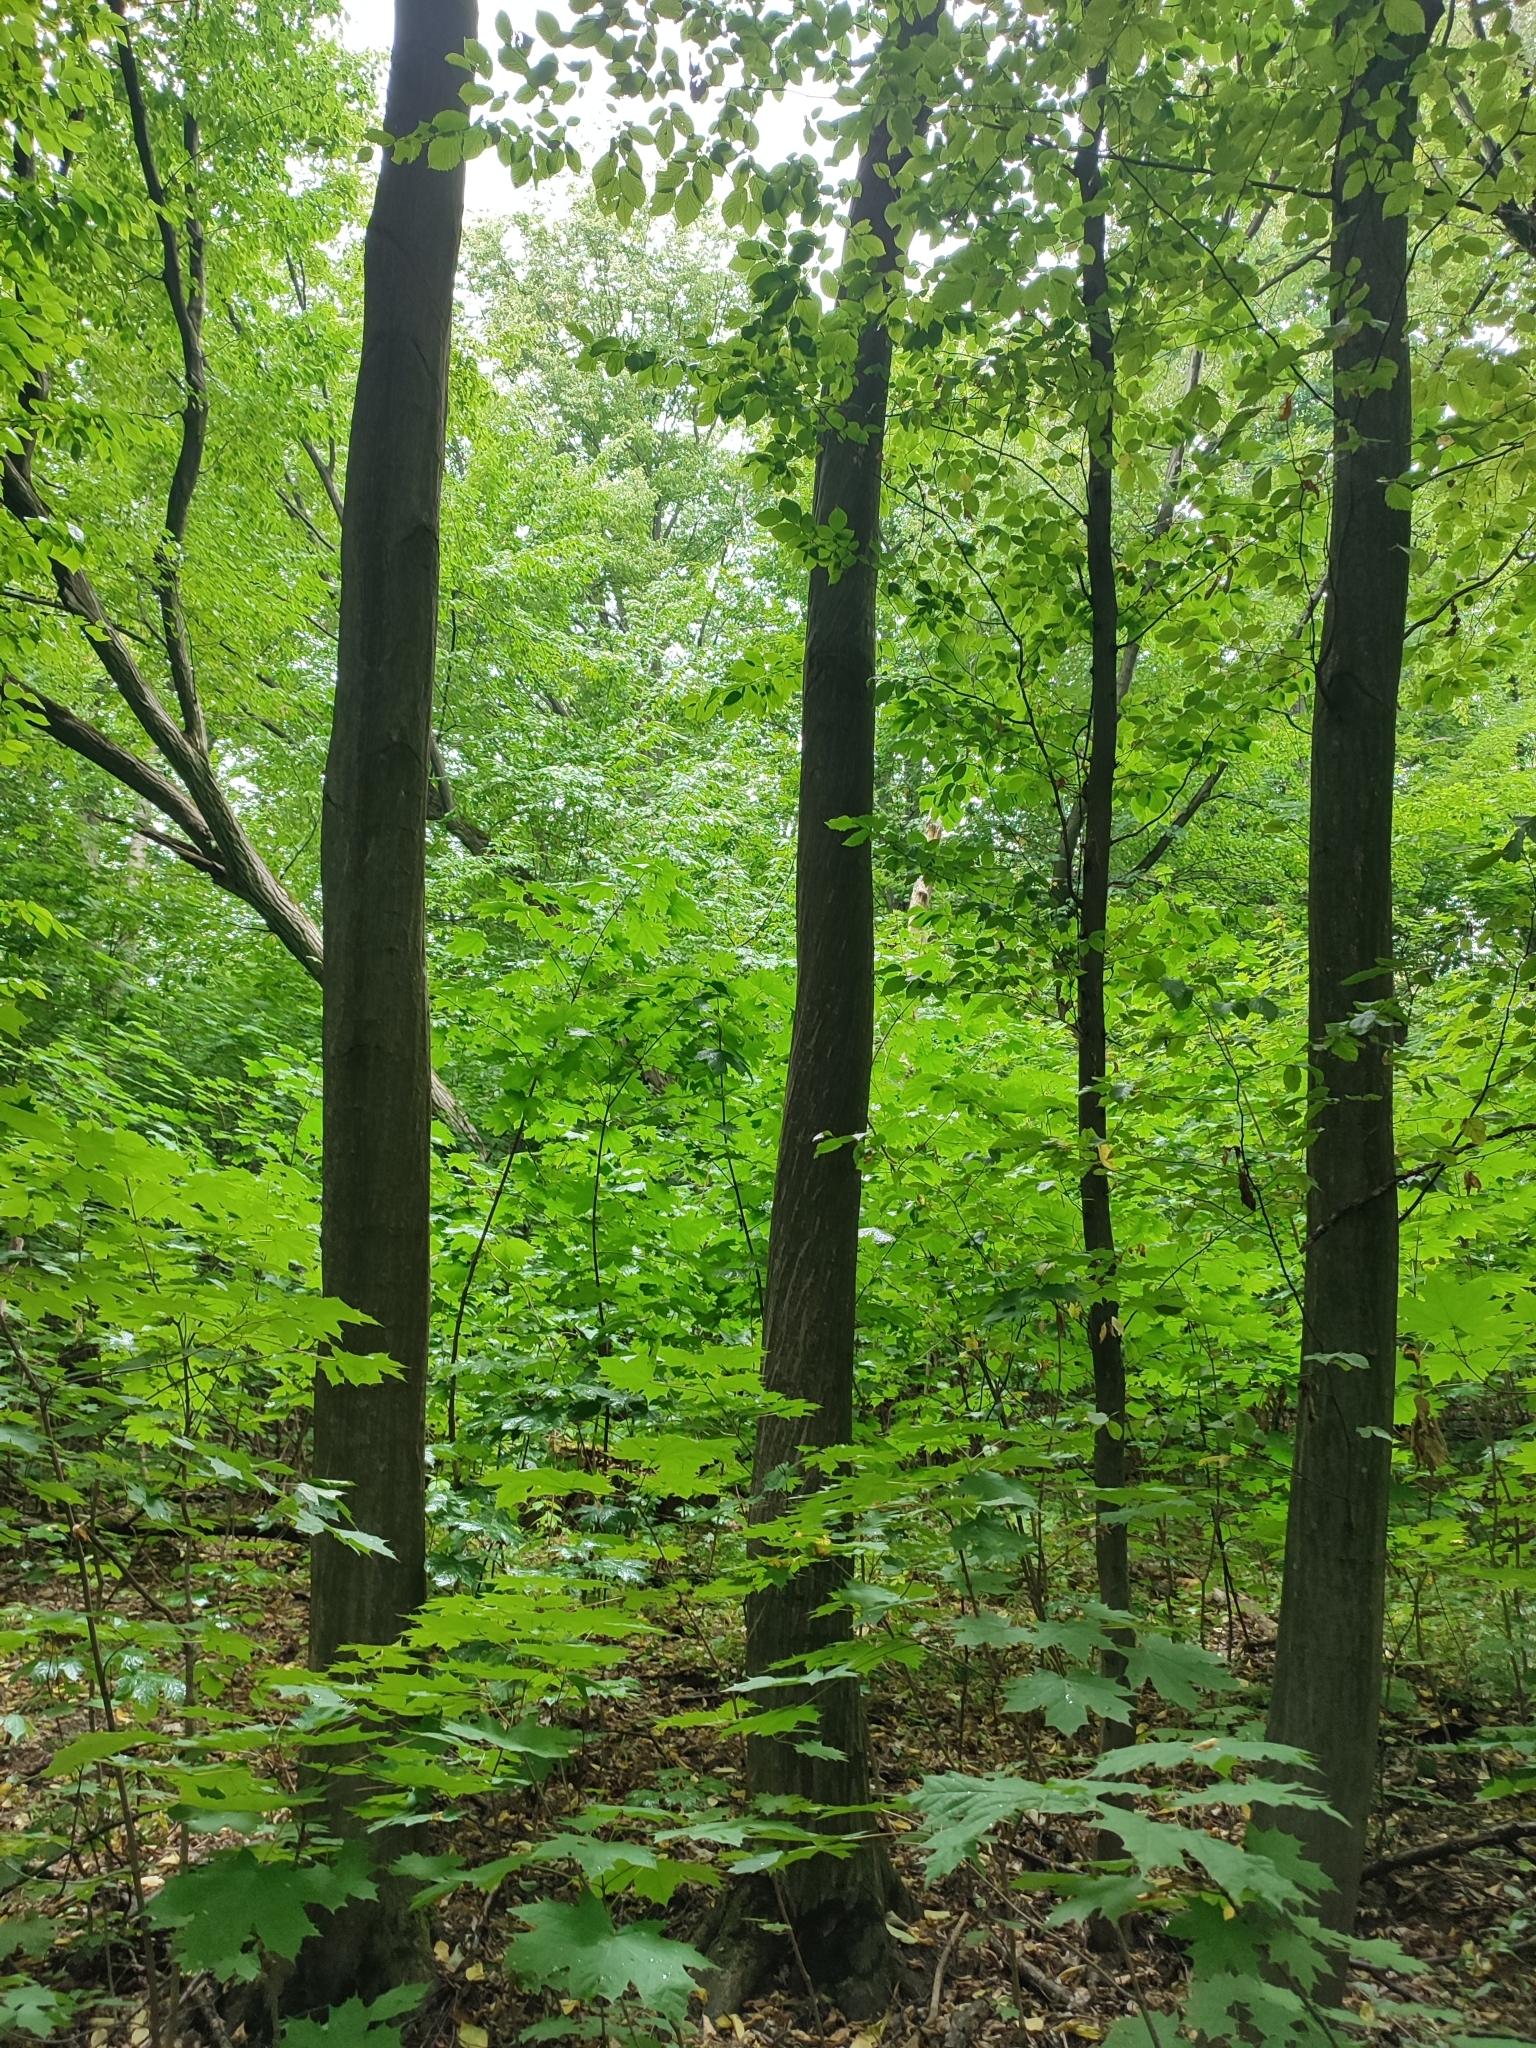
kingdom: Plantae
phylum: Tracheophyta
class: Magnoliopsida
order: Fagales
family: Betulaceae
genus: Carpinus
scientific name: Carpinus betulus
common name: Hornbeam
